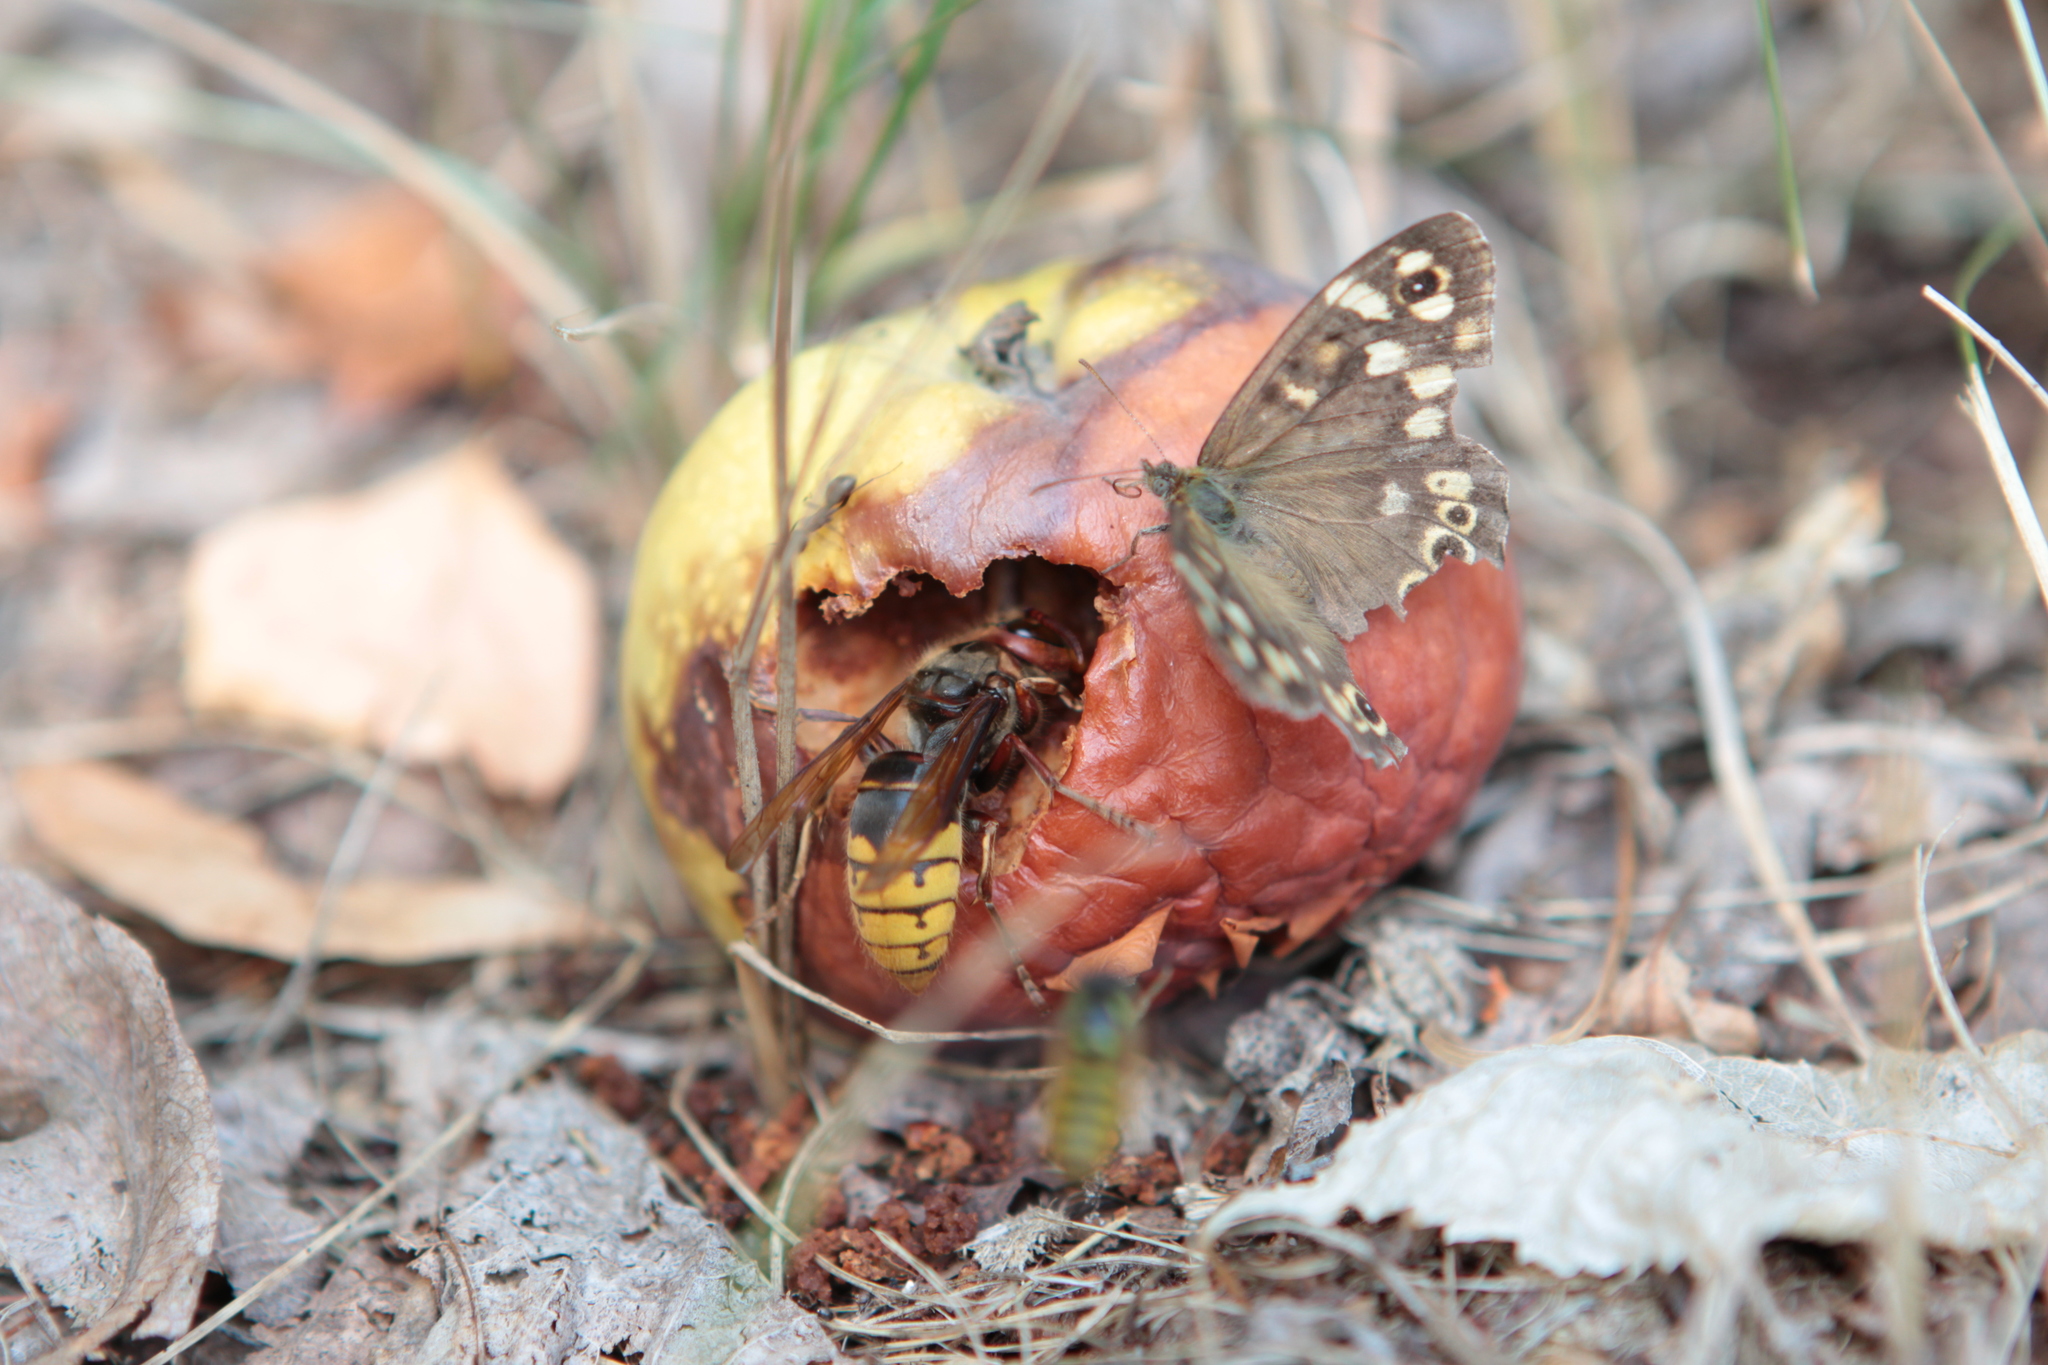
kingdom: Animalia
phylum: Arthropoda
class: Insecta
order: Lepidoptera
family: Nymphalidae
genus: Pararge
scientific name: Pararge aegeria
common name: Speckled wood
